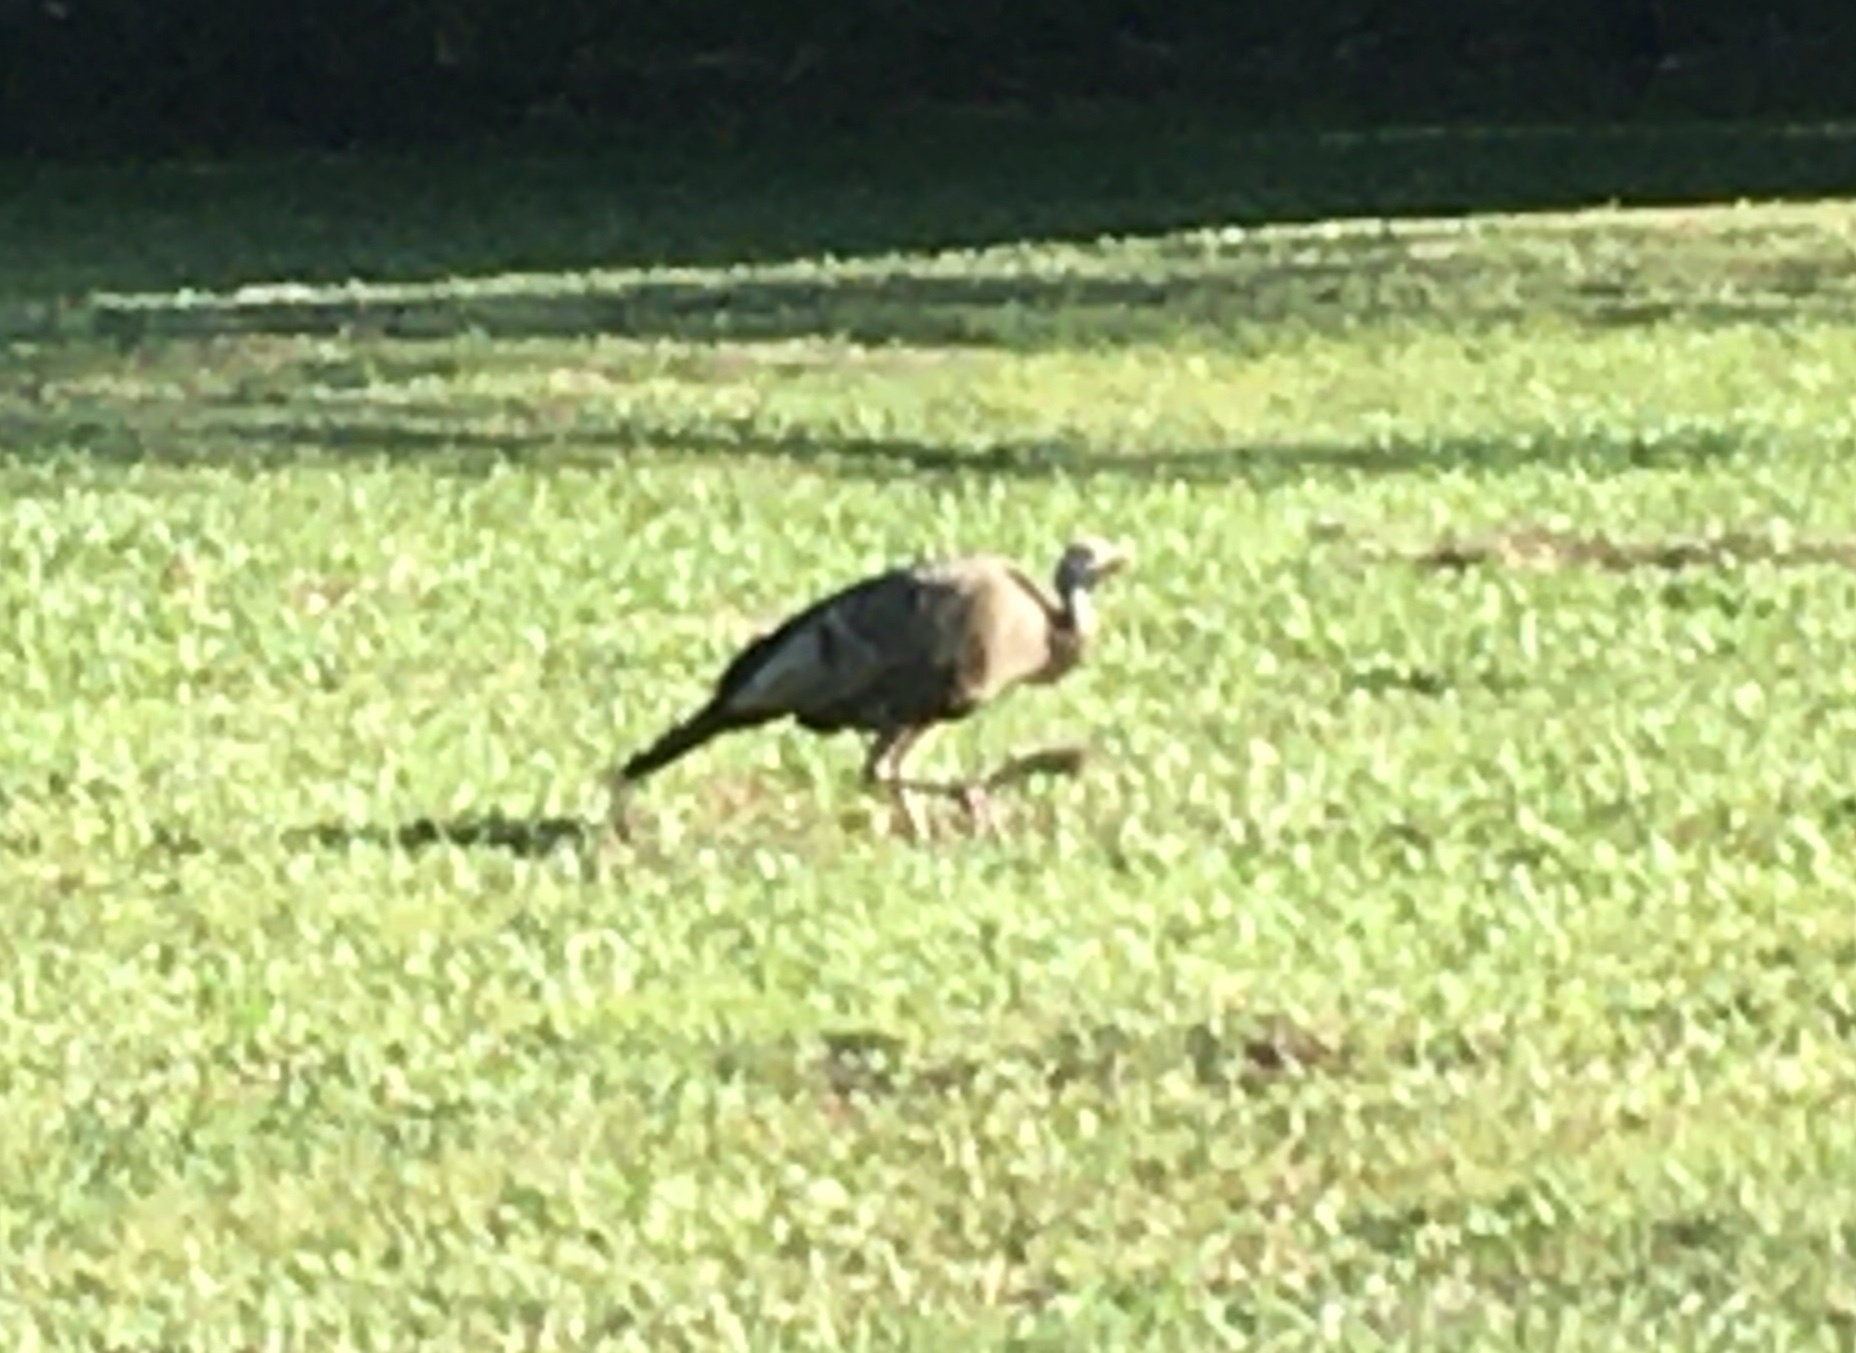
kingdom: Animalia
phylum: Chordata
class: Aves
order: Galliformes
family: Phasianidae
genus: Meleagris
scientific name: Meleagris gallopavo
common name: Wild turkey
